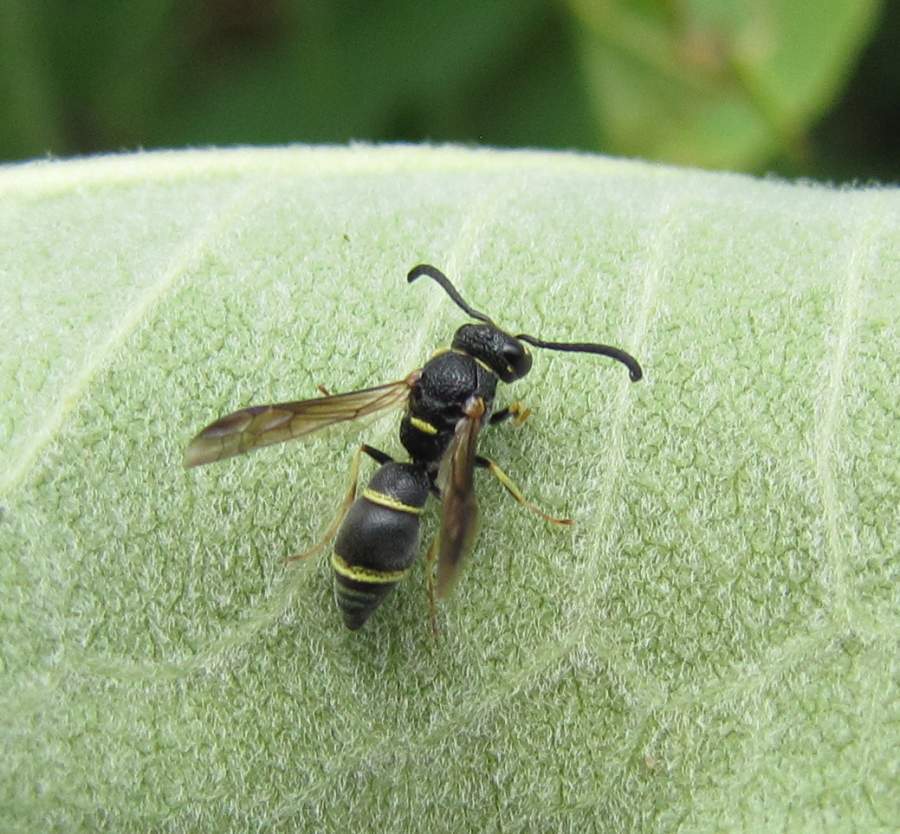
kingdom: Animalia
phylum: Arthropoda
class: Insecta
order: Hymenoptera
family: Eumenidae
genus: Parancistrocerus
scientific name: Parancistrocerus pensylvanicus
